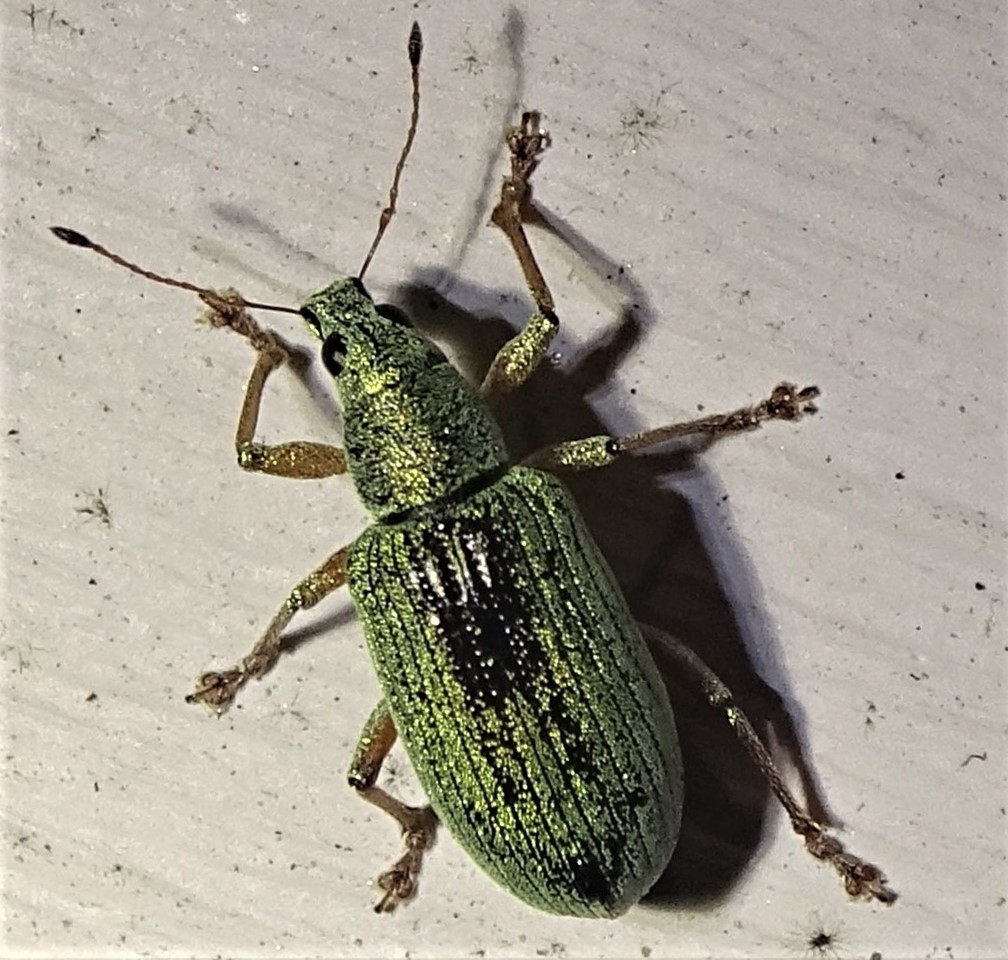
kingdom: Animalia
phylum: Arthropoda
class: Insecta
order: Coleoptera
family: Curculionidae
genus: Polydrusus
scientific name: Polydrusus formosus
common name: Weevil
